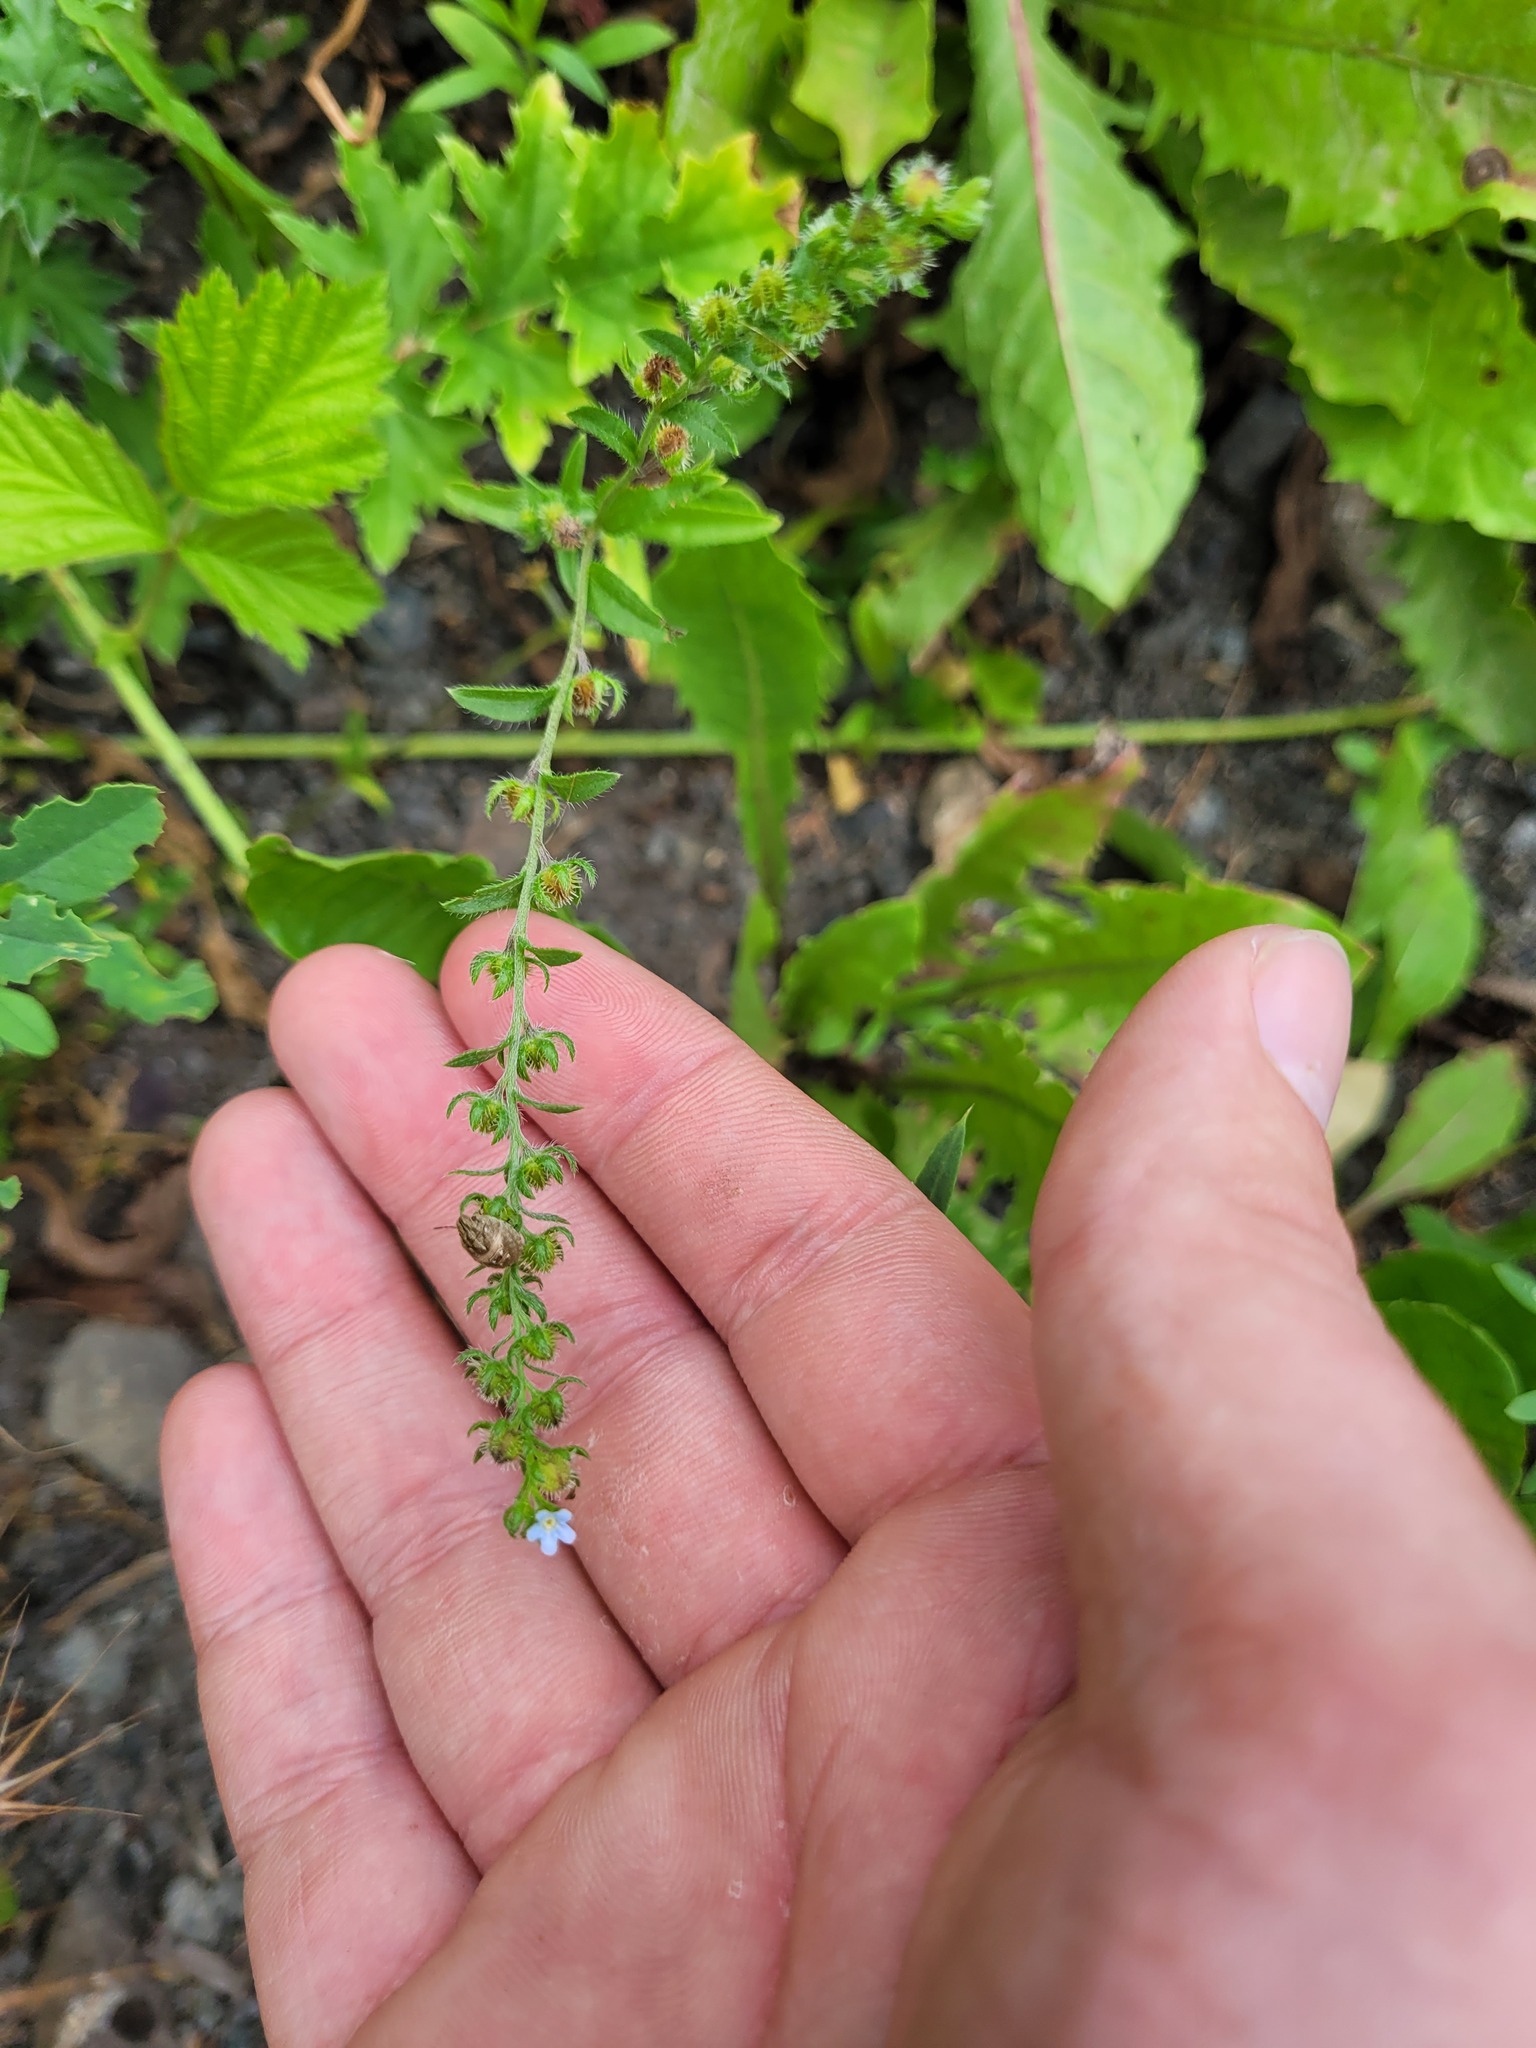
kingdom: Plantae
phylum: Tracheophyta
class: Magnoliopsida
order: Boraginales
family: Boraginaceae
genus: Lappula
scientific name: Lappula squarrosa
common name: European stickseed
